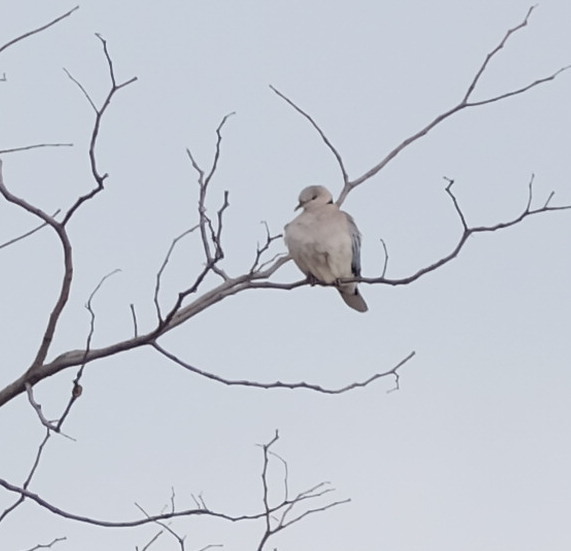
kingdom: Animalia
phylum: Chordata
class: Aves
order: Columbiformes
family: Columbidae
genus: Streptopelia
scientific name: Streptopelia capicola
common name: Ring-necked dove
